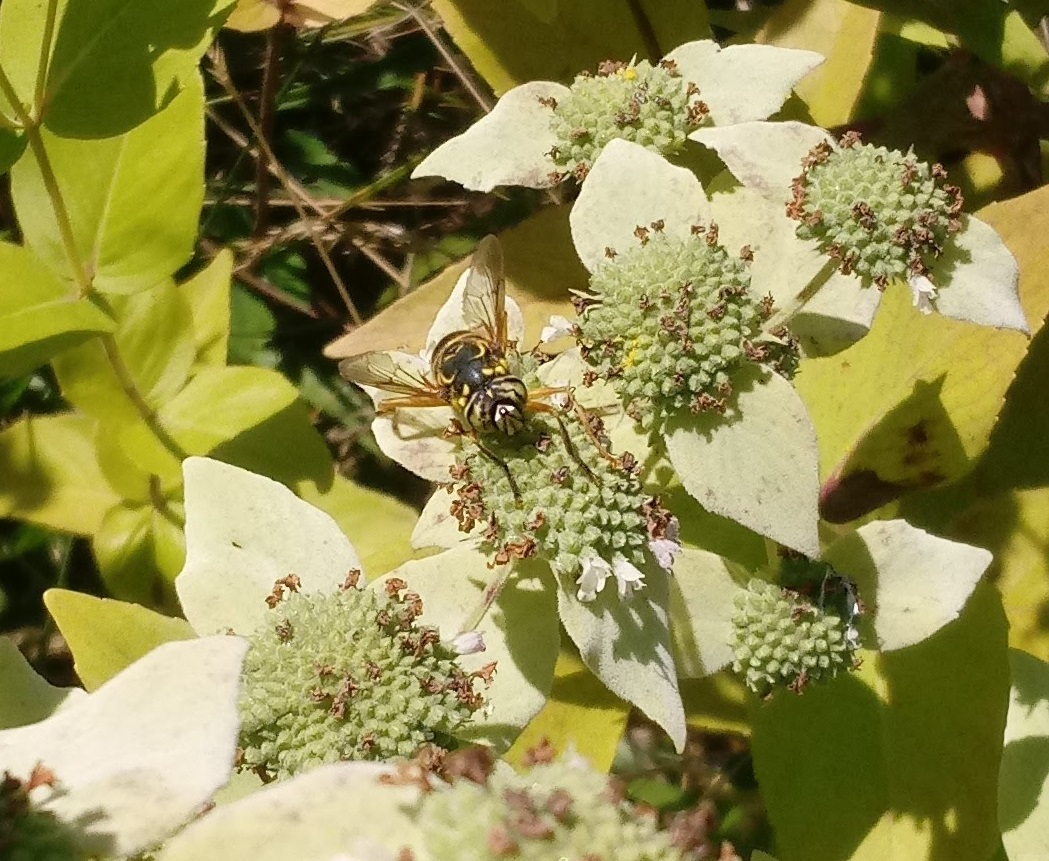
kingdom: Animalia
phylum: Arthropoda
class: Insecta
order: Diptera
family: Syrphidae
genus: Spilomyia
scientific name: Spilomyia longicornis
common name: Eastern hornet fly
